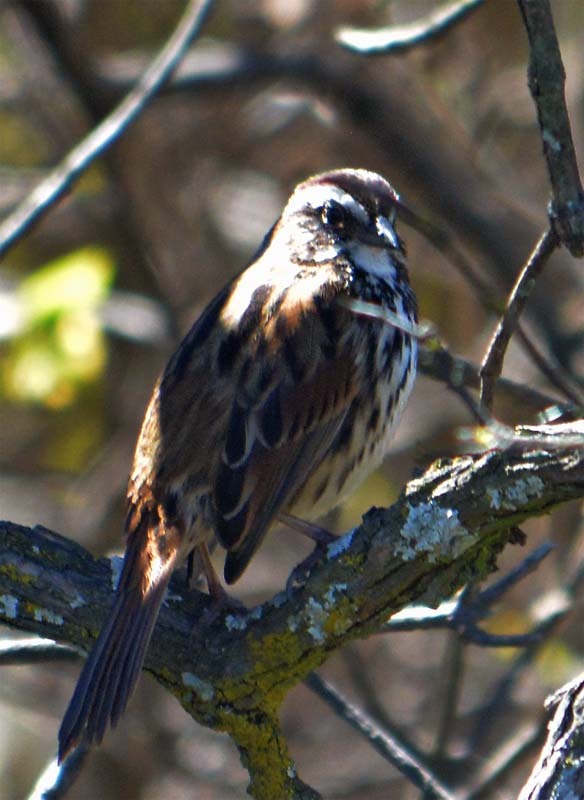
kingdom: Animalia
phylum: Chordata
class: Aves
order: Passeriformes
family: Passerellidae
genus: Melospiza
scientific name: Melospiza melodia
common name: Song sparrow
